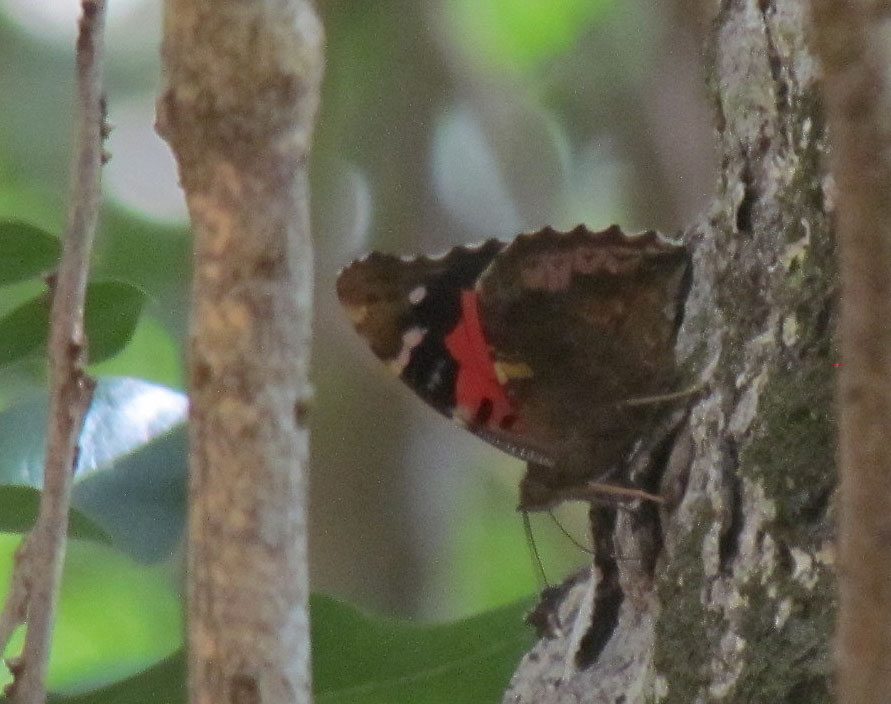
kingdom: Animalia
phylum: Arthropoda
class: Insecta
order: Lepidoptera
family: Nymphalidae
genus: Vanessa
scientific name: Vanessa tameamea
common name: Kamehameha lady
